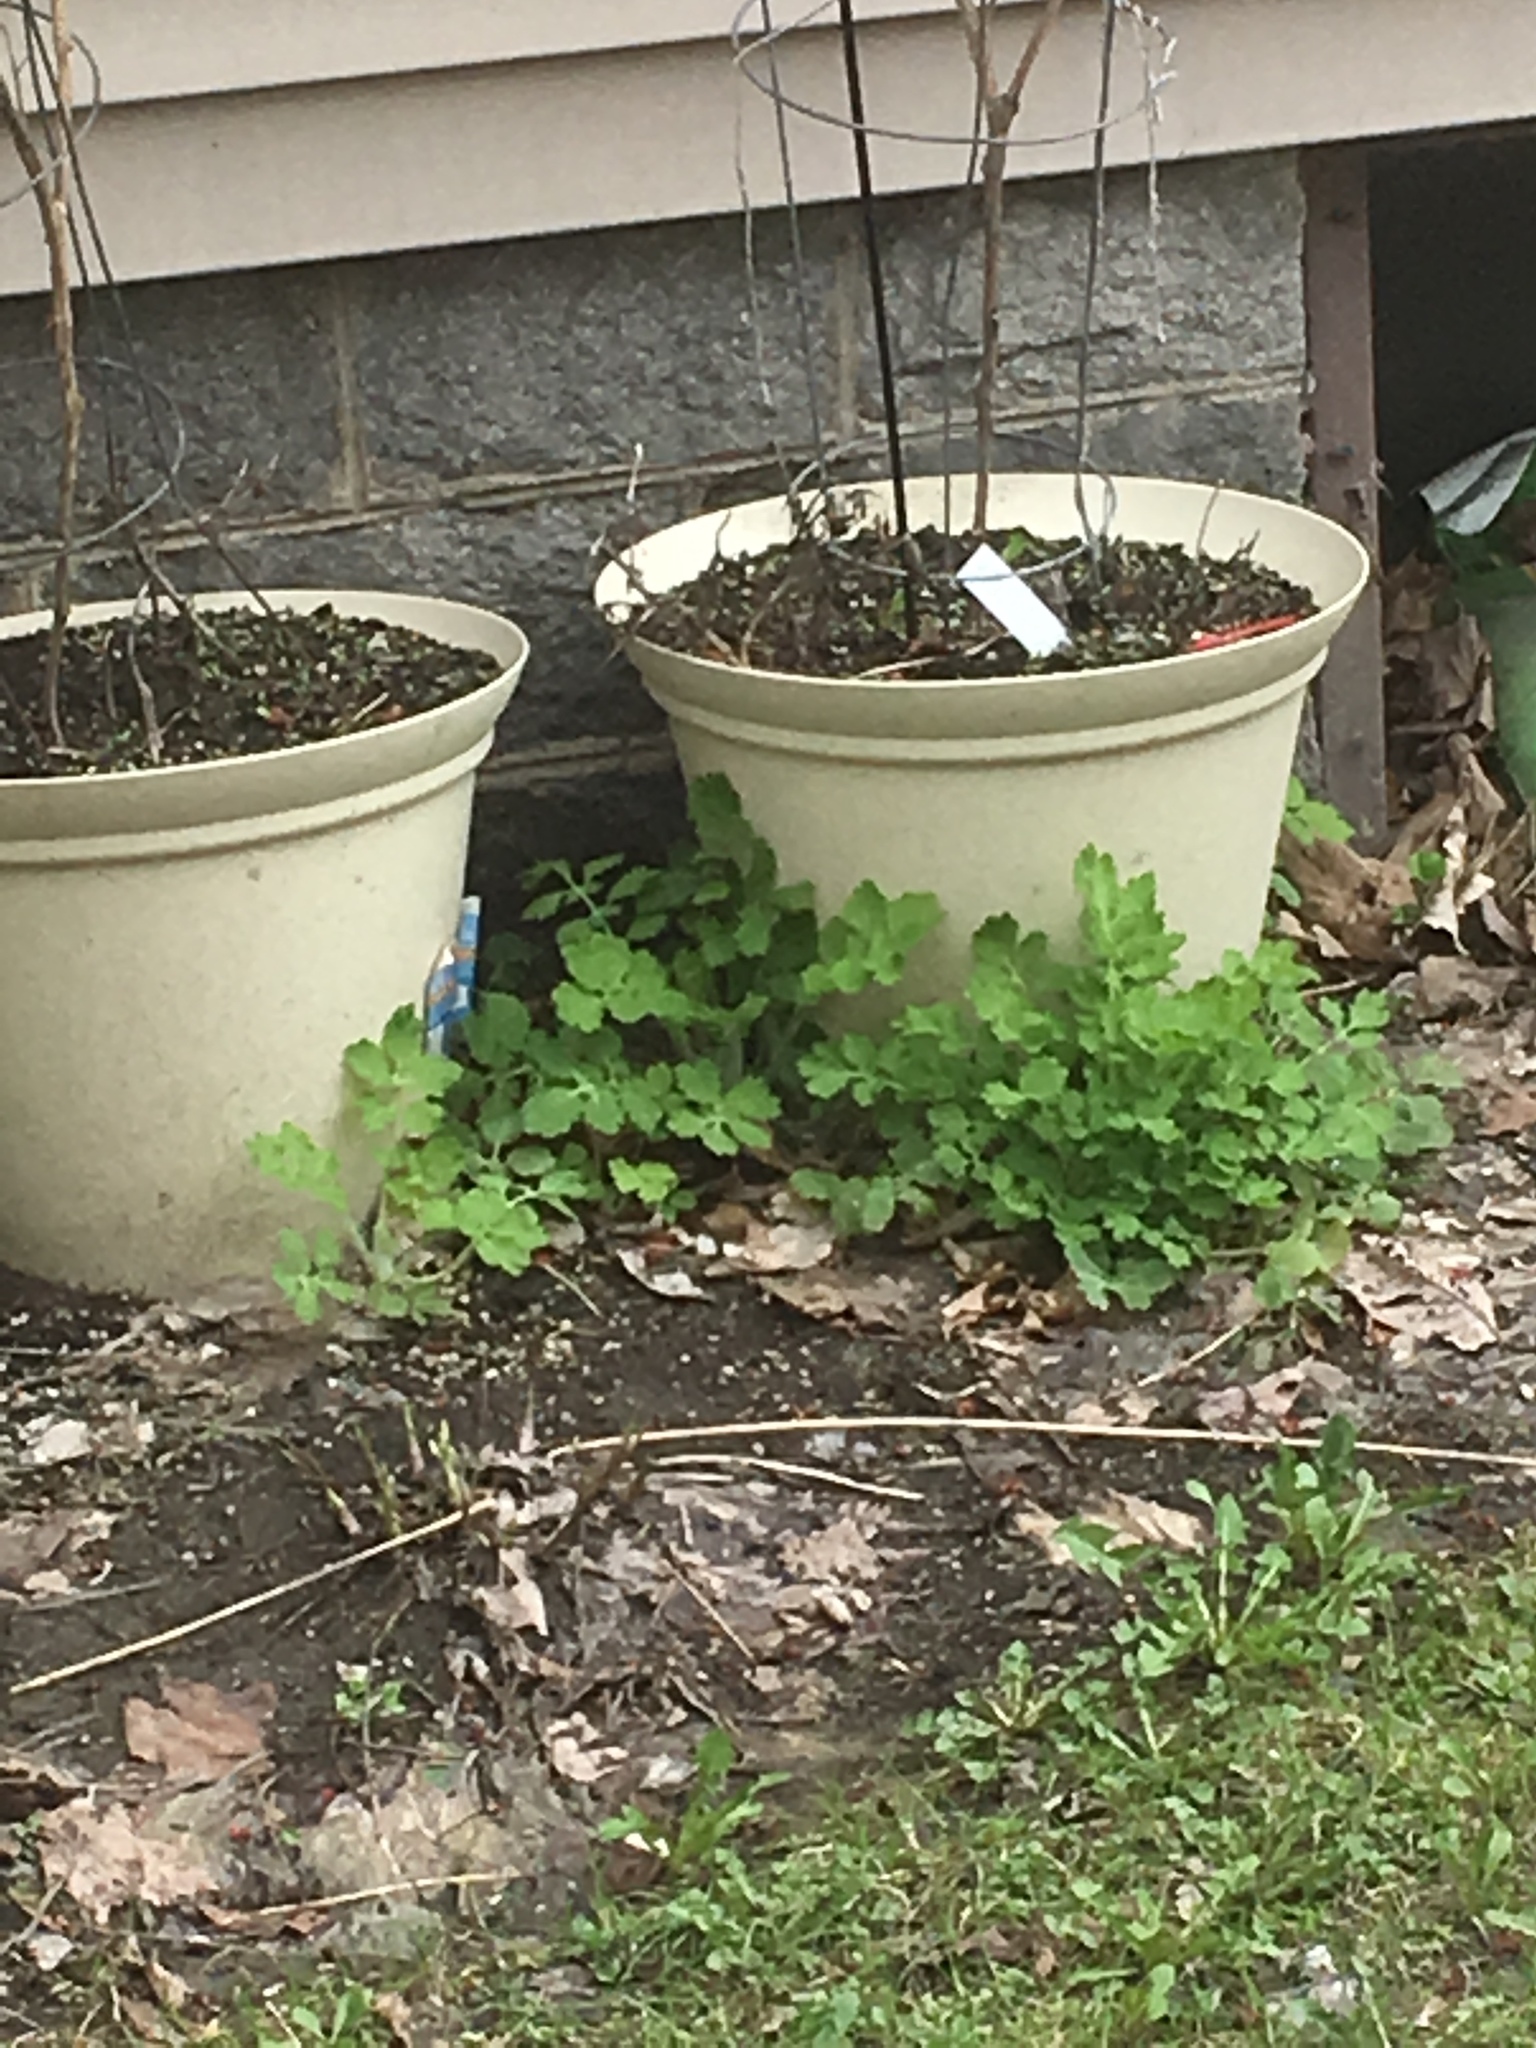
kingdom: Plantae
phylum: Tracheophyta
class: Magnoliopsida
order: Ranunculales
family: Papaveraceae
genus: Chelidonium
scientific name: Chelidonium majus
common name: Greater celandine
